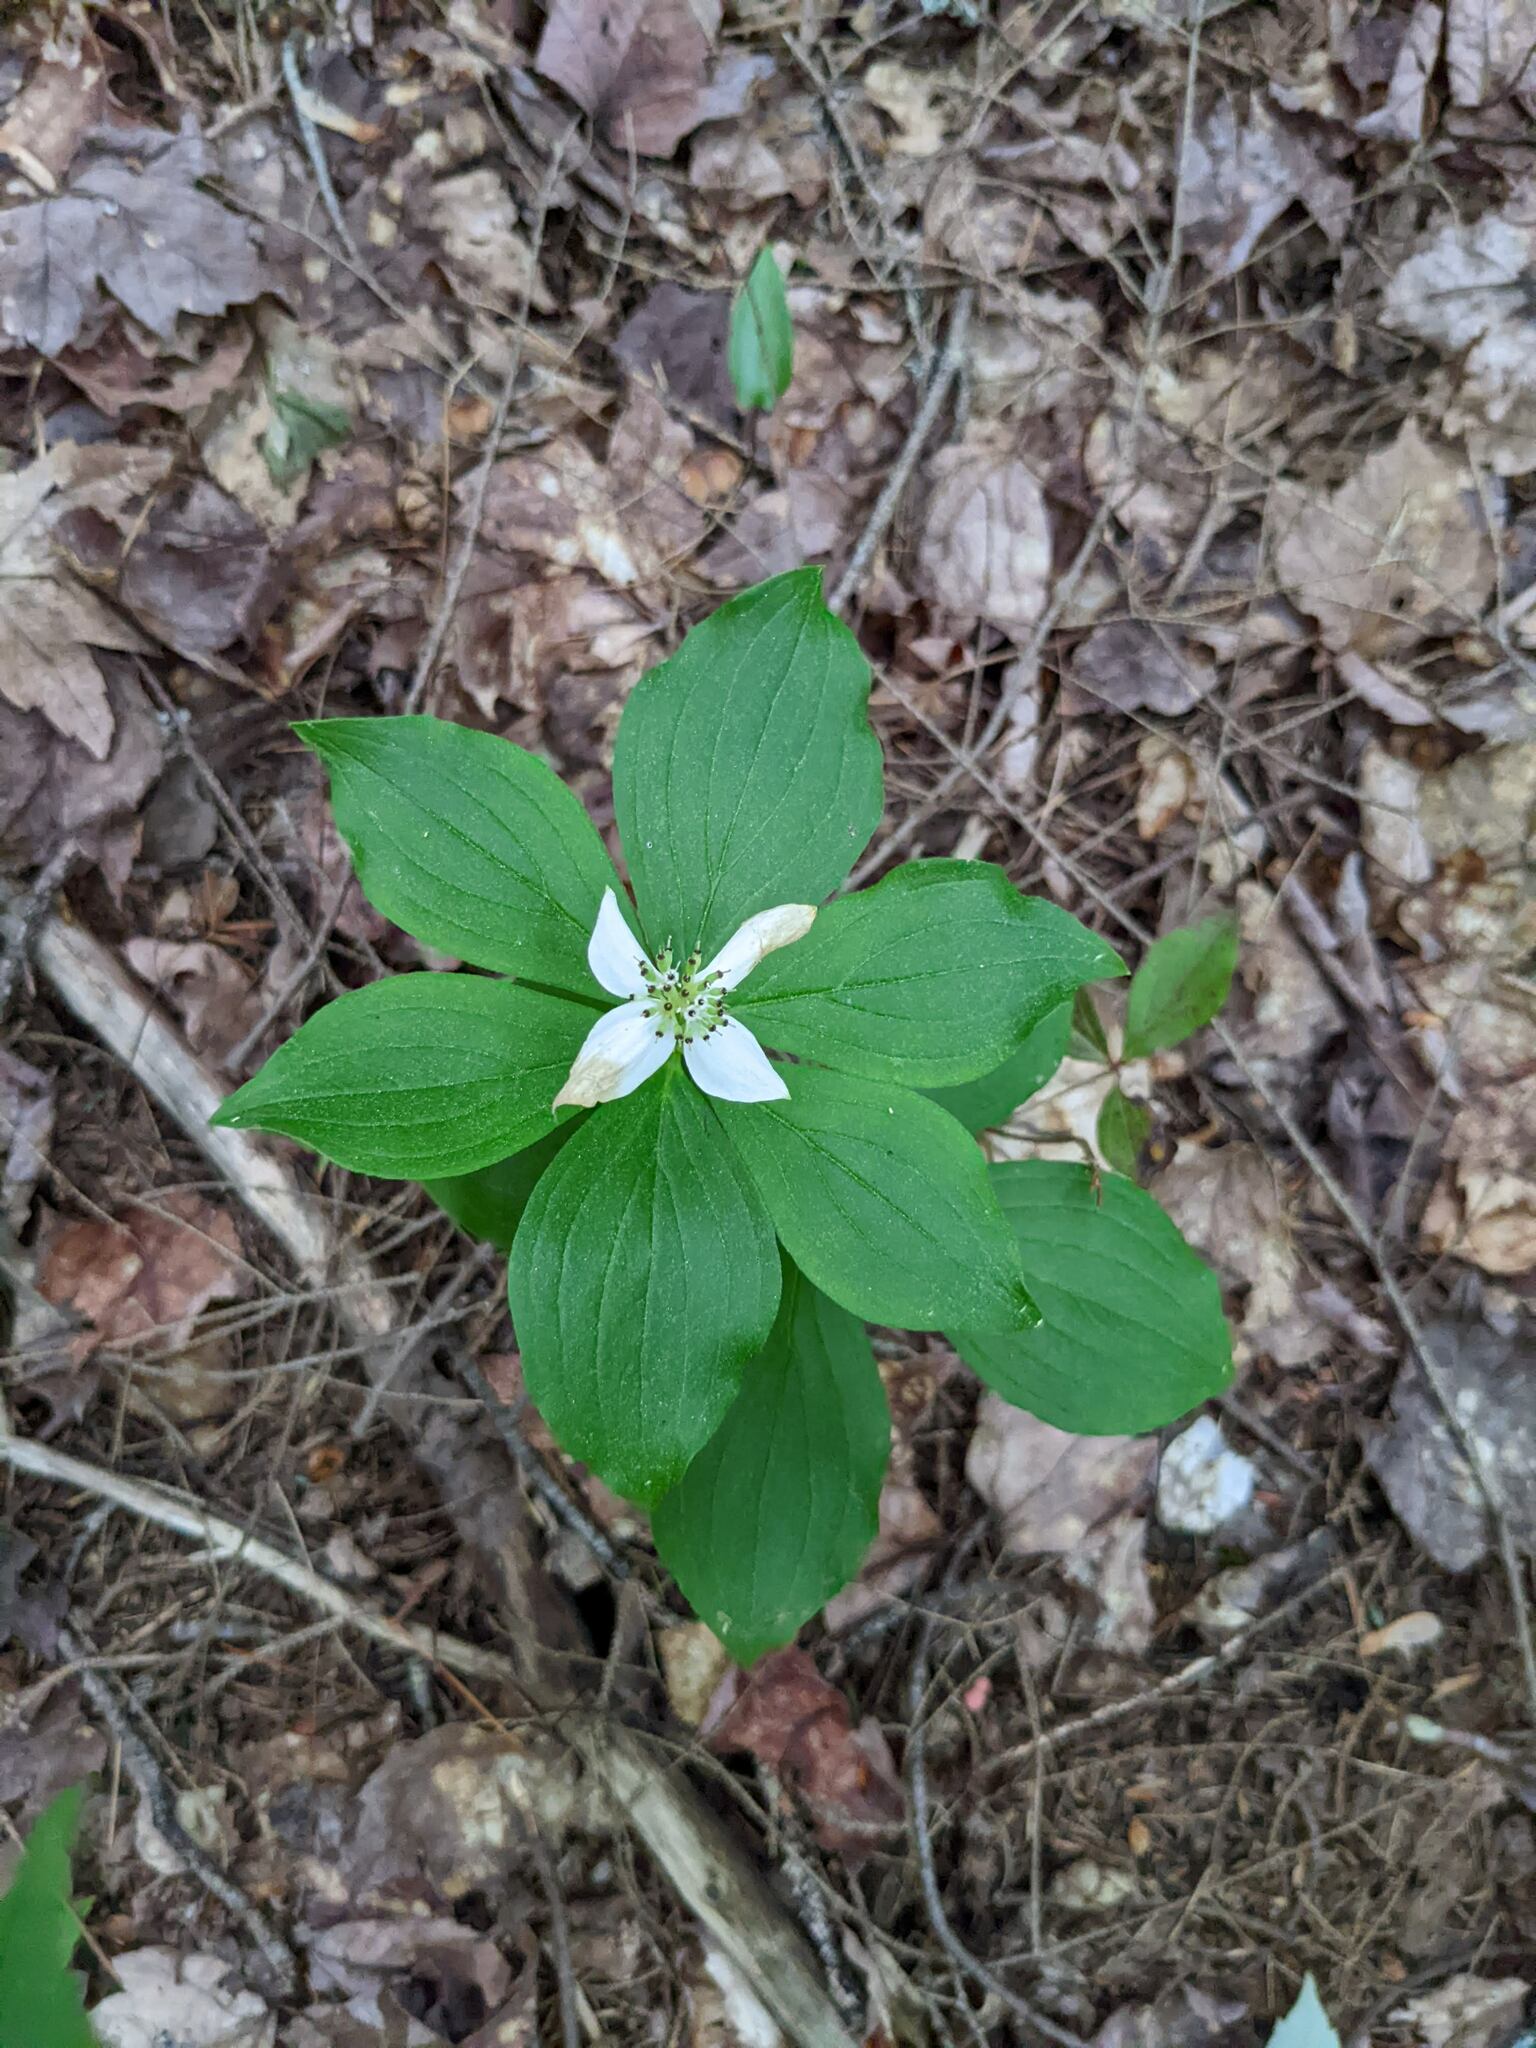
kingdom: Plantae
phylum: Tracheophyta
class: Magnoliopsida
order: Cornales
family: Cornaceae
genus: Cornus
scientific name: Cornus canadensis
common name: Creeping dogwood
